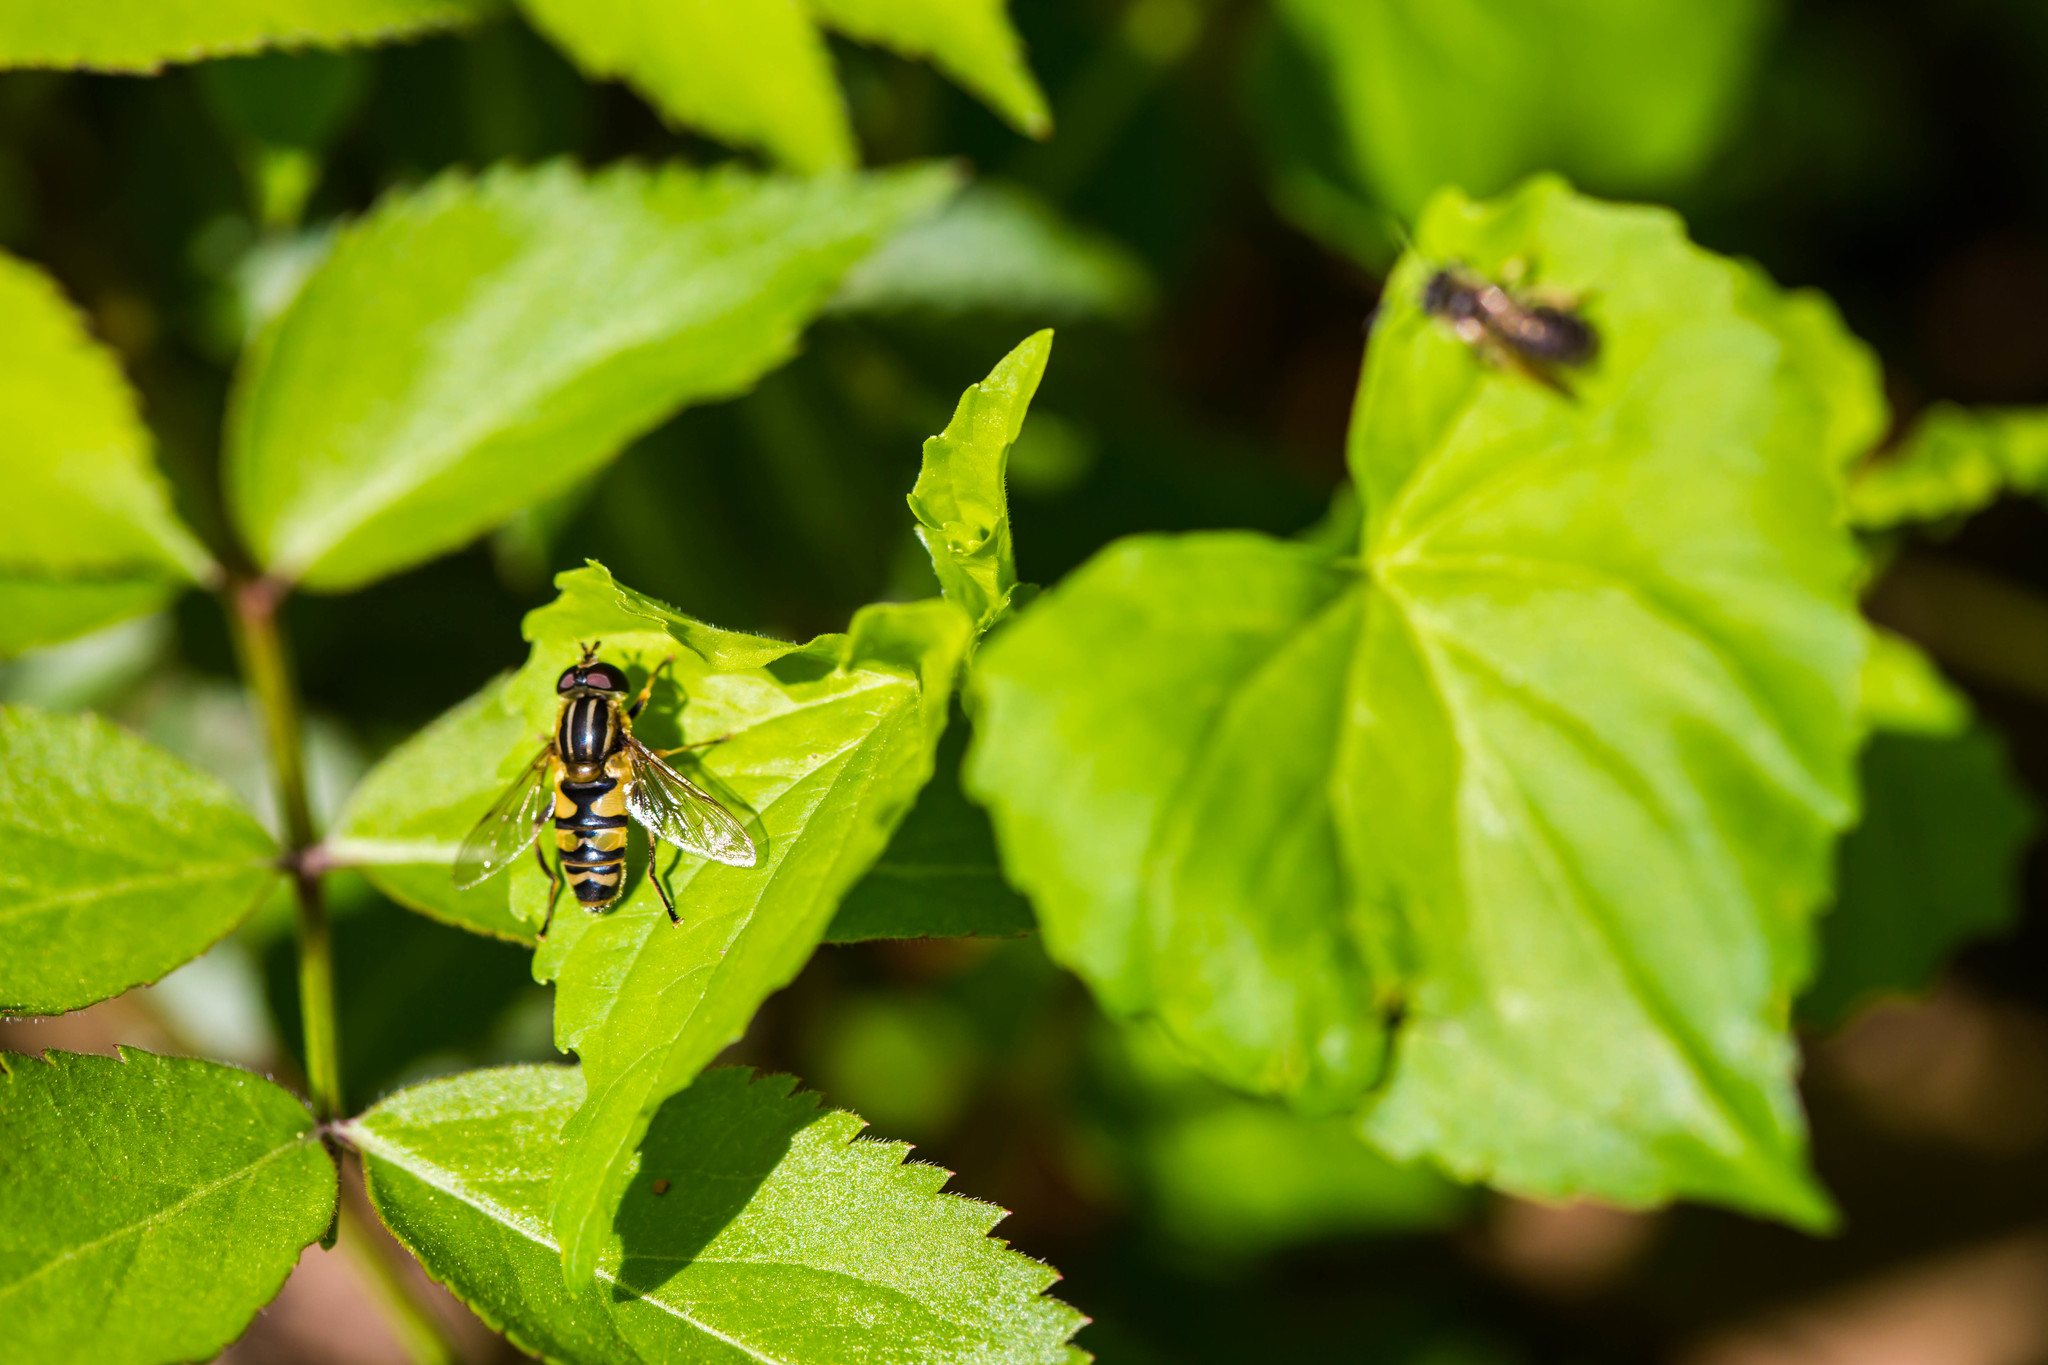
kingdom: Animalia
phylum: Arthropoda
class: Insecta
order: Diptera
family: Syrphidae
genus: Helophilus
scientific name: Helophilus fasciatus
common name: Narrow-headed marsh fly
